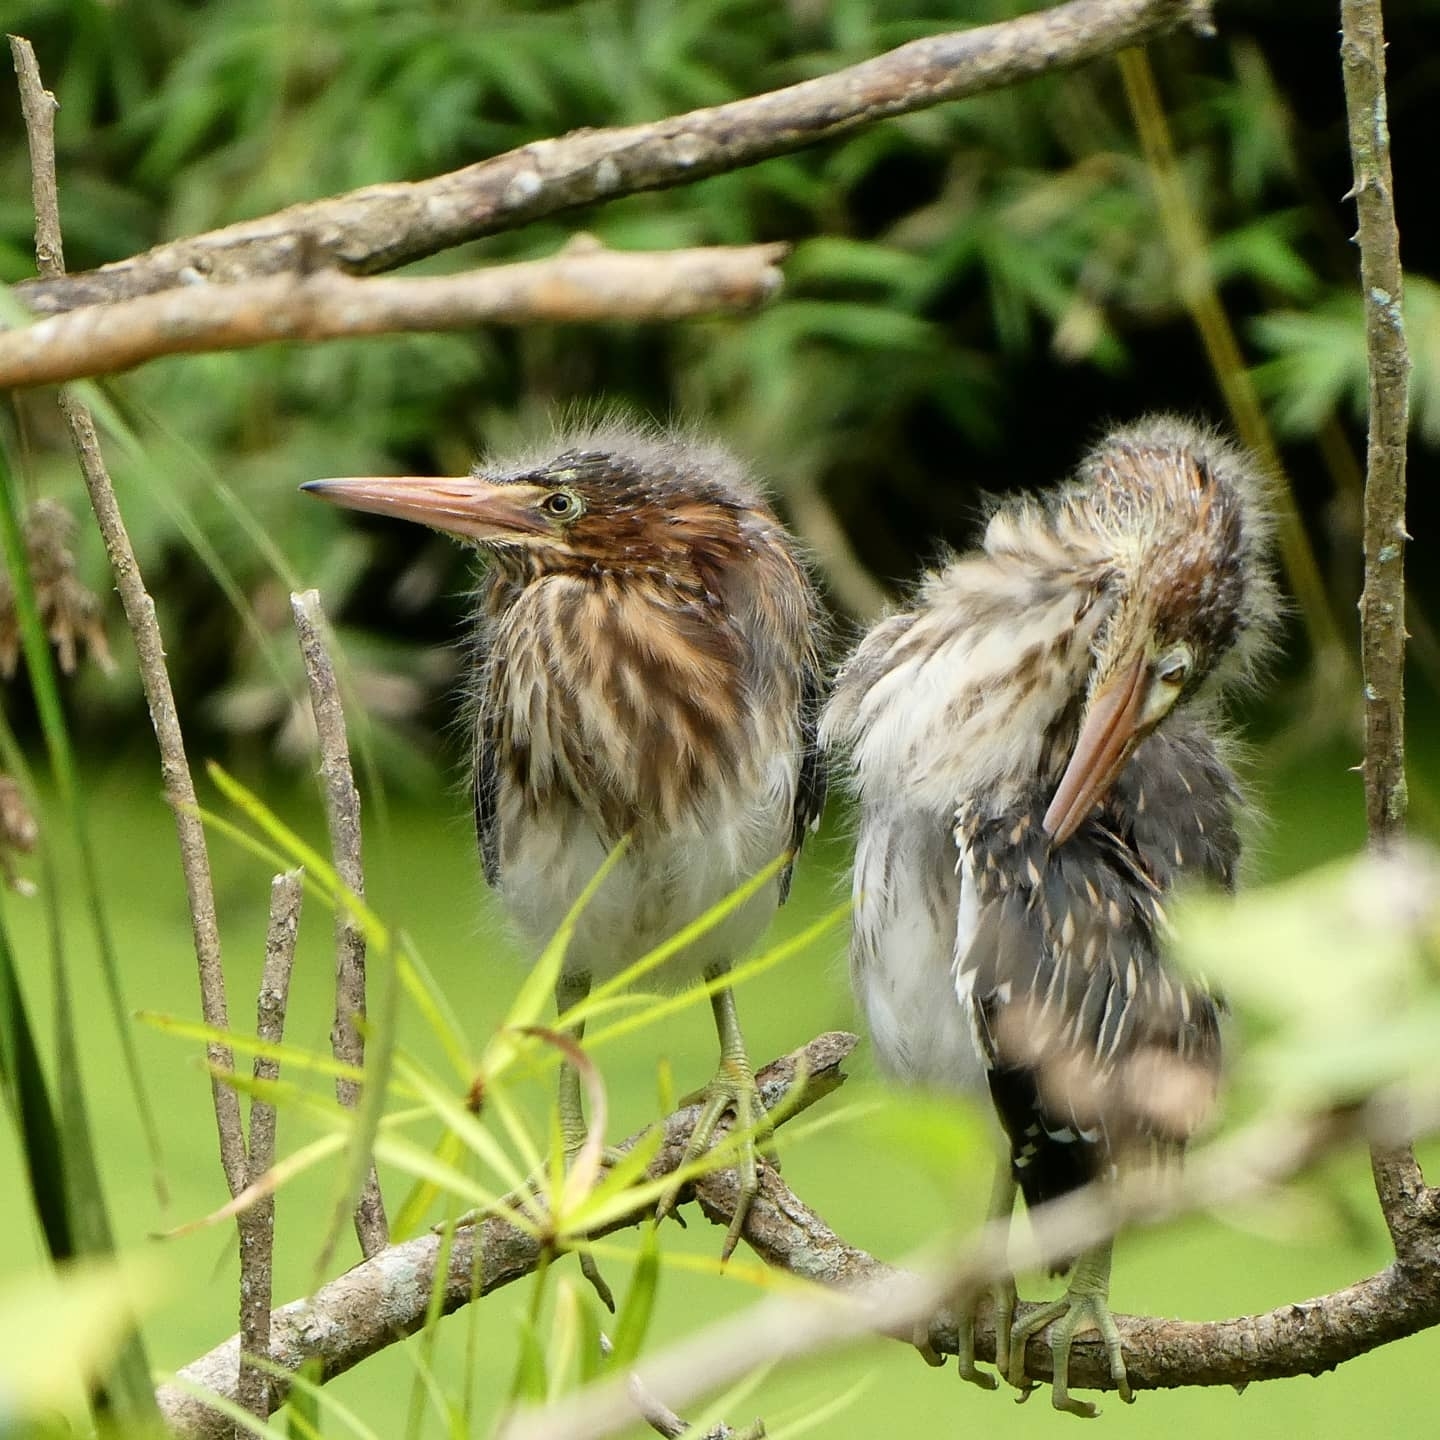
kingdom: Animalia
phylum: Chordata
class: Aves
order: Pelecaniformes
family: Ardeidae
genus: Butorides
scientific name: Butorides virescens
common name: Green heron
